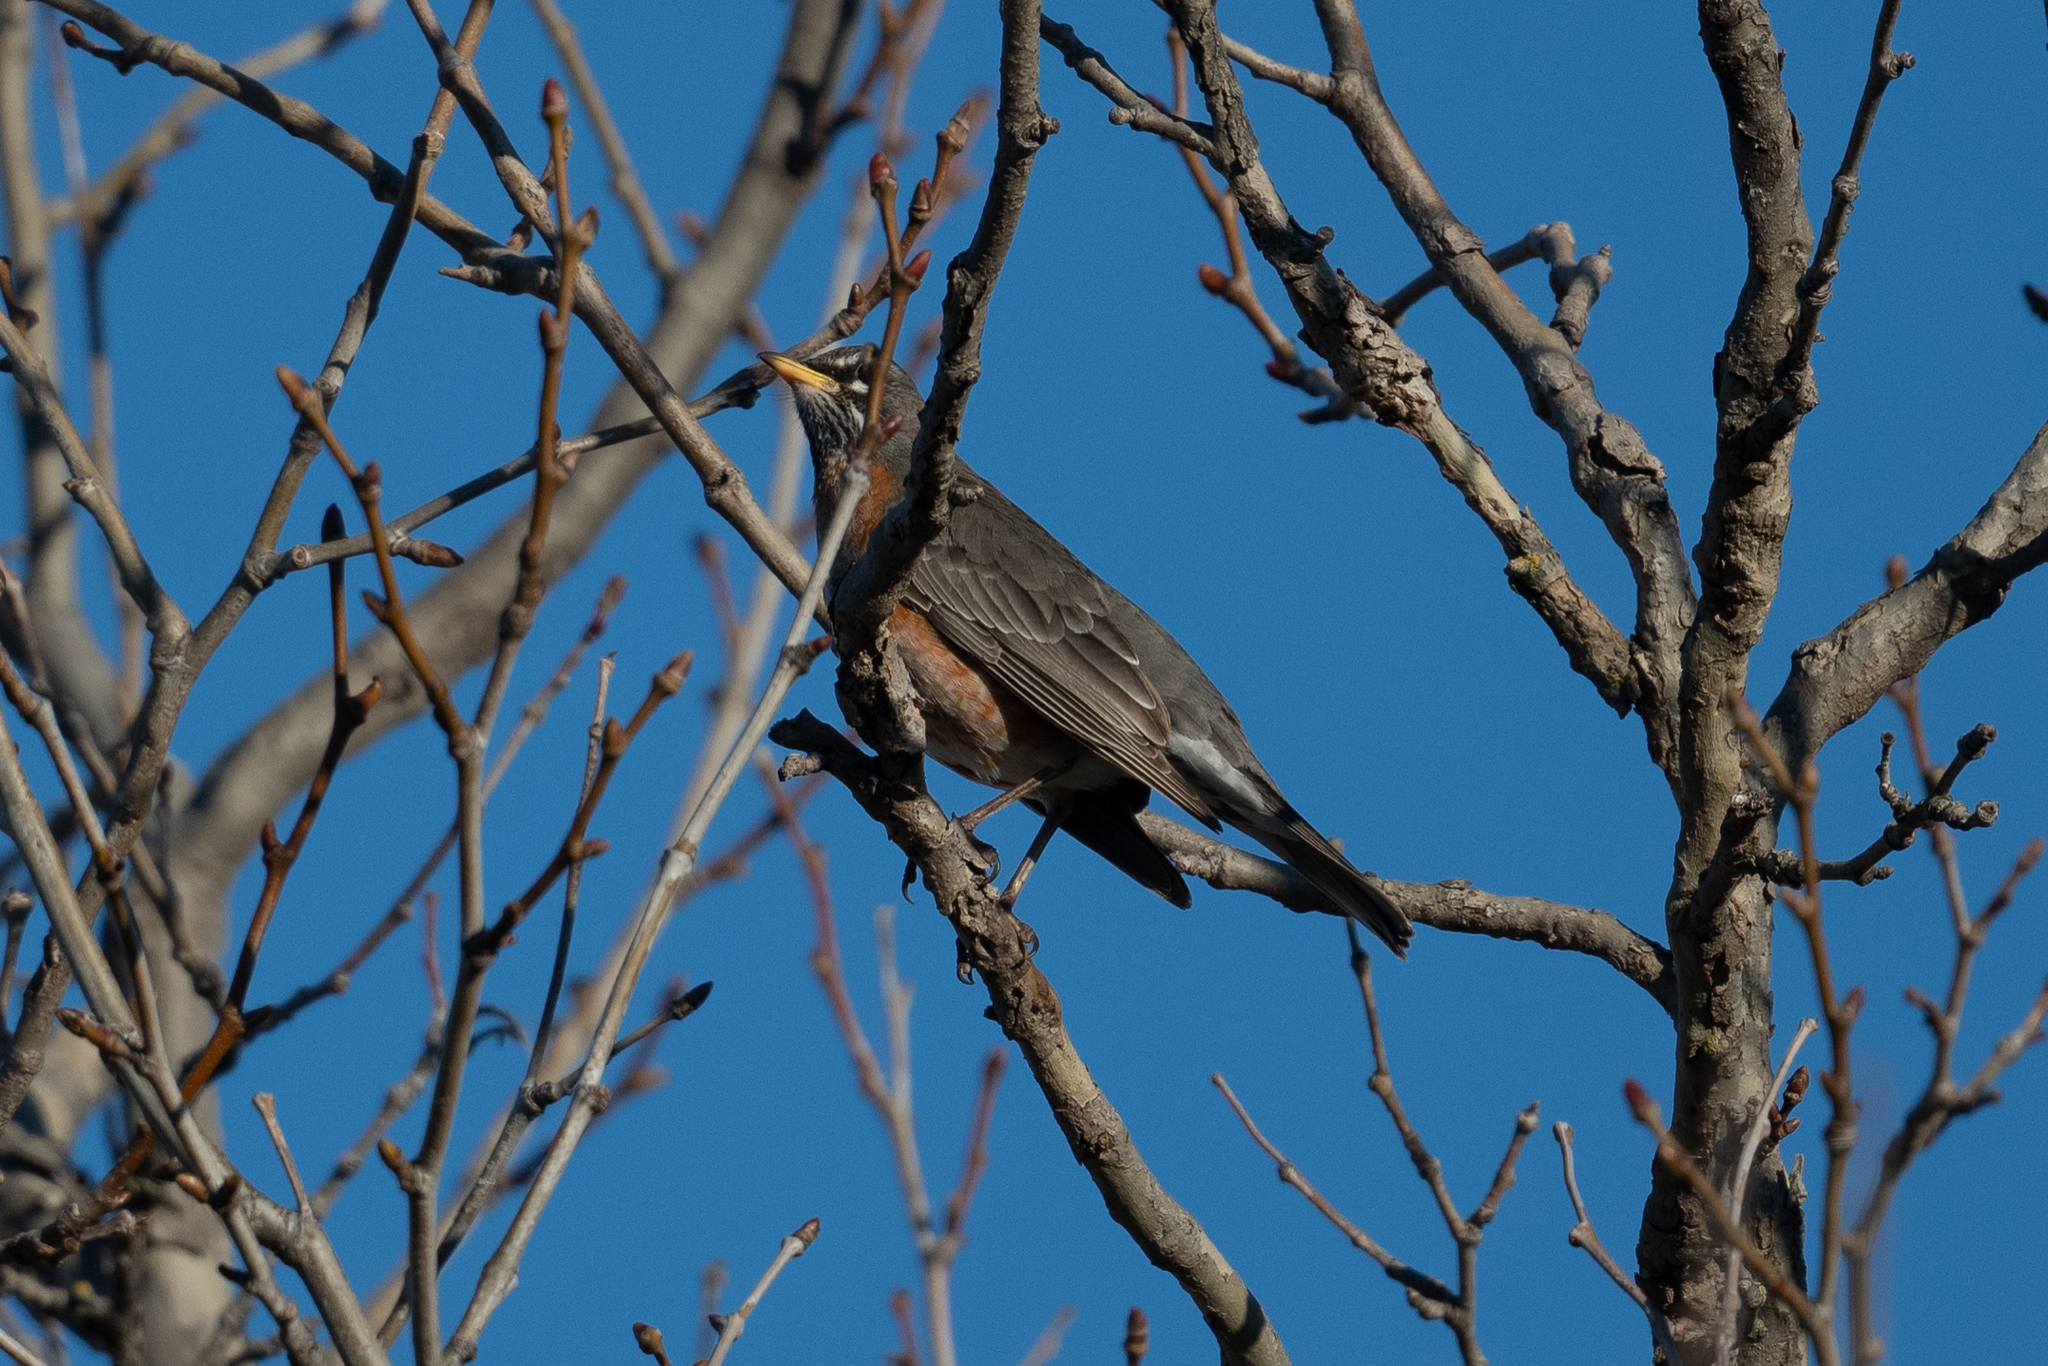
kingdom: Animalia
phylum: Chordata
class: Aves
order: Passeriformes
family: Turdidae
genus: Turdus
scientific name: Turdus migratorius
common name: American robin
